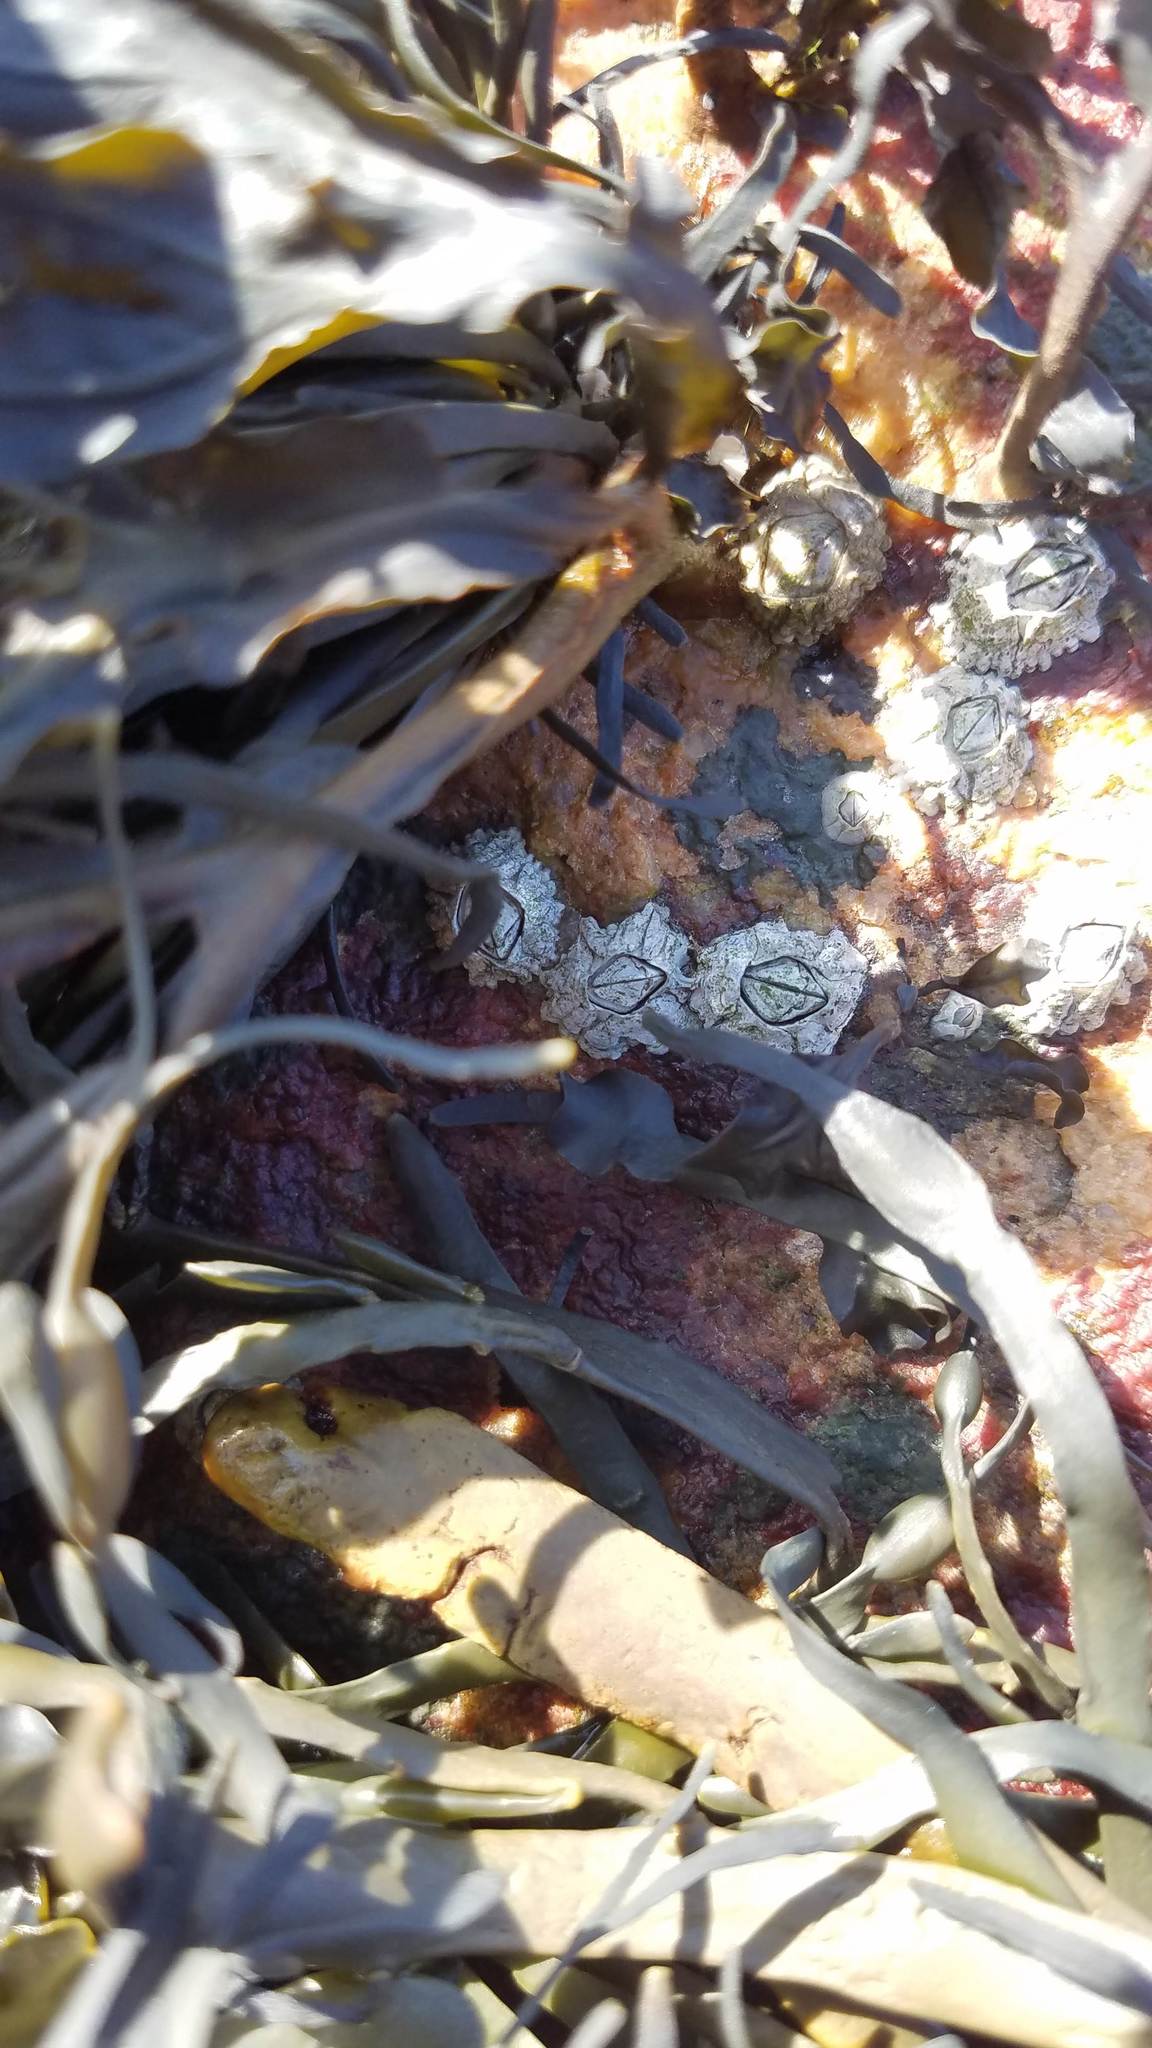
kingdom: Animalia
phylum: Arthropoda
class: Maxillopoda
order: Sessilia
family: Archaeobalanidae
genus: Semibalanus
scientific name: Semibalanus balanoides
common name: Acorn barnacle
